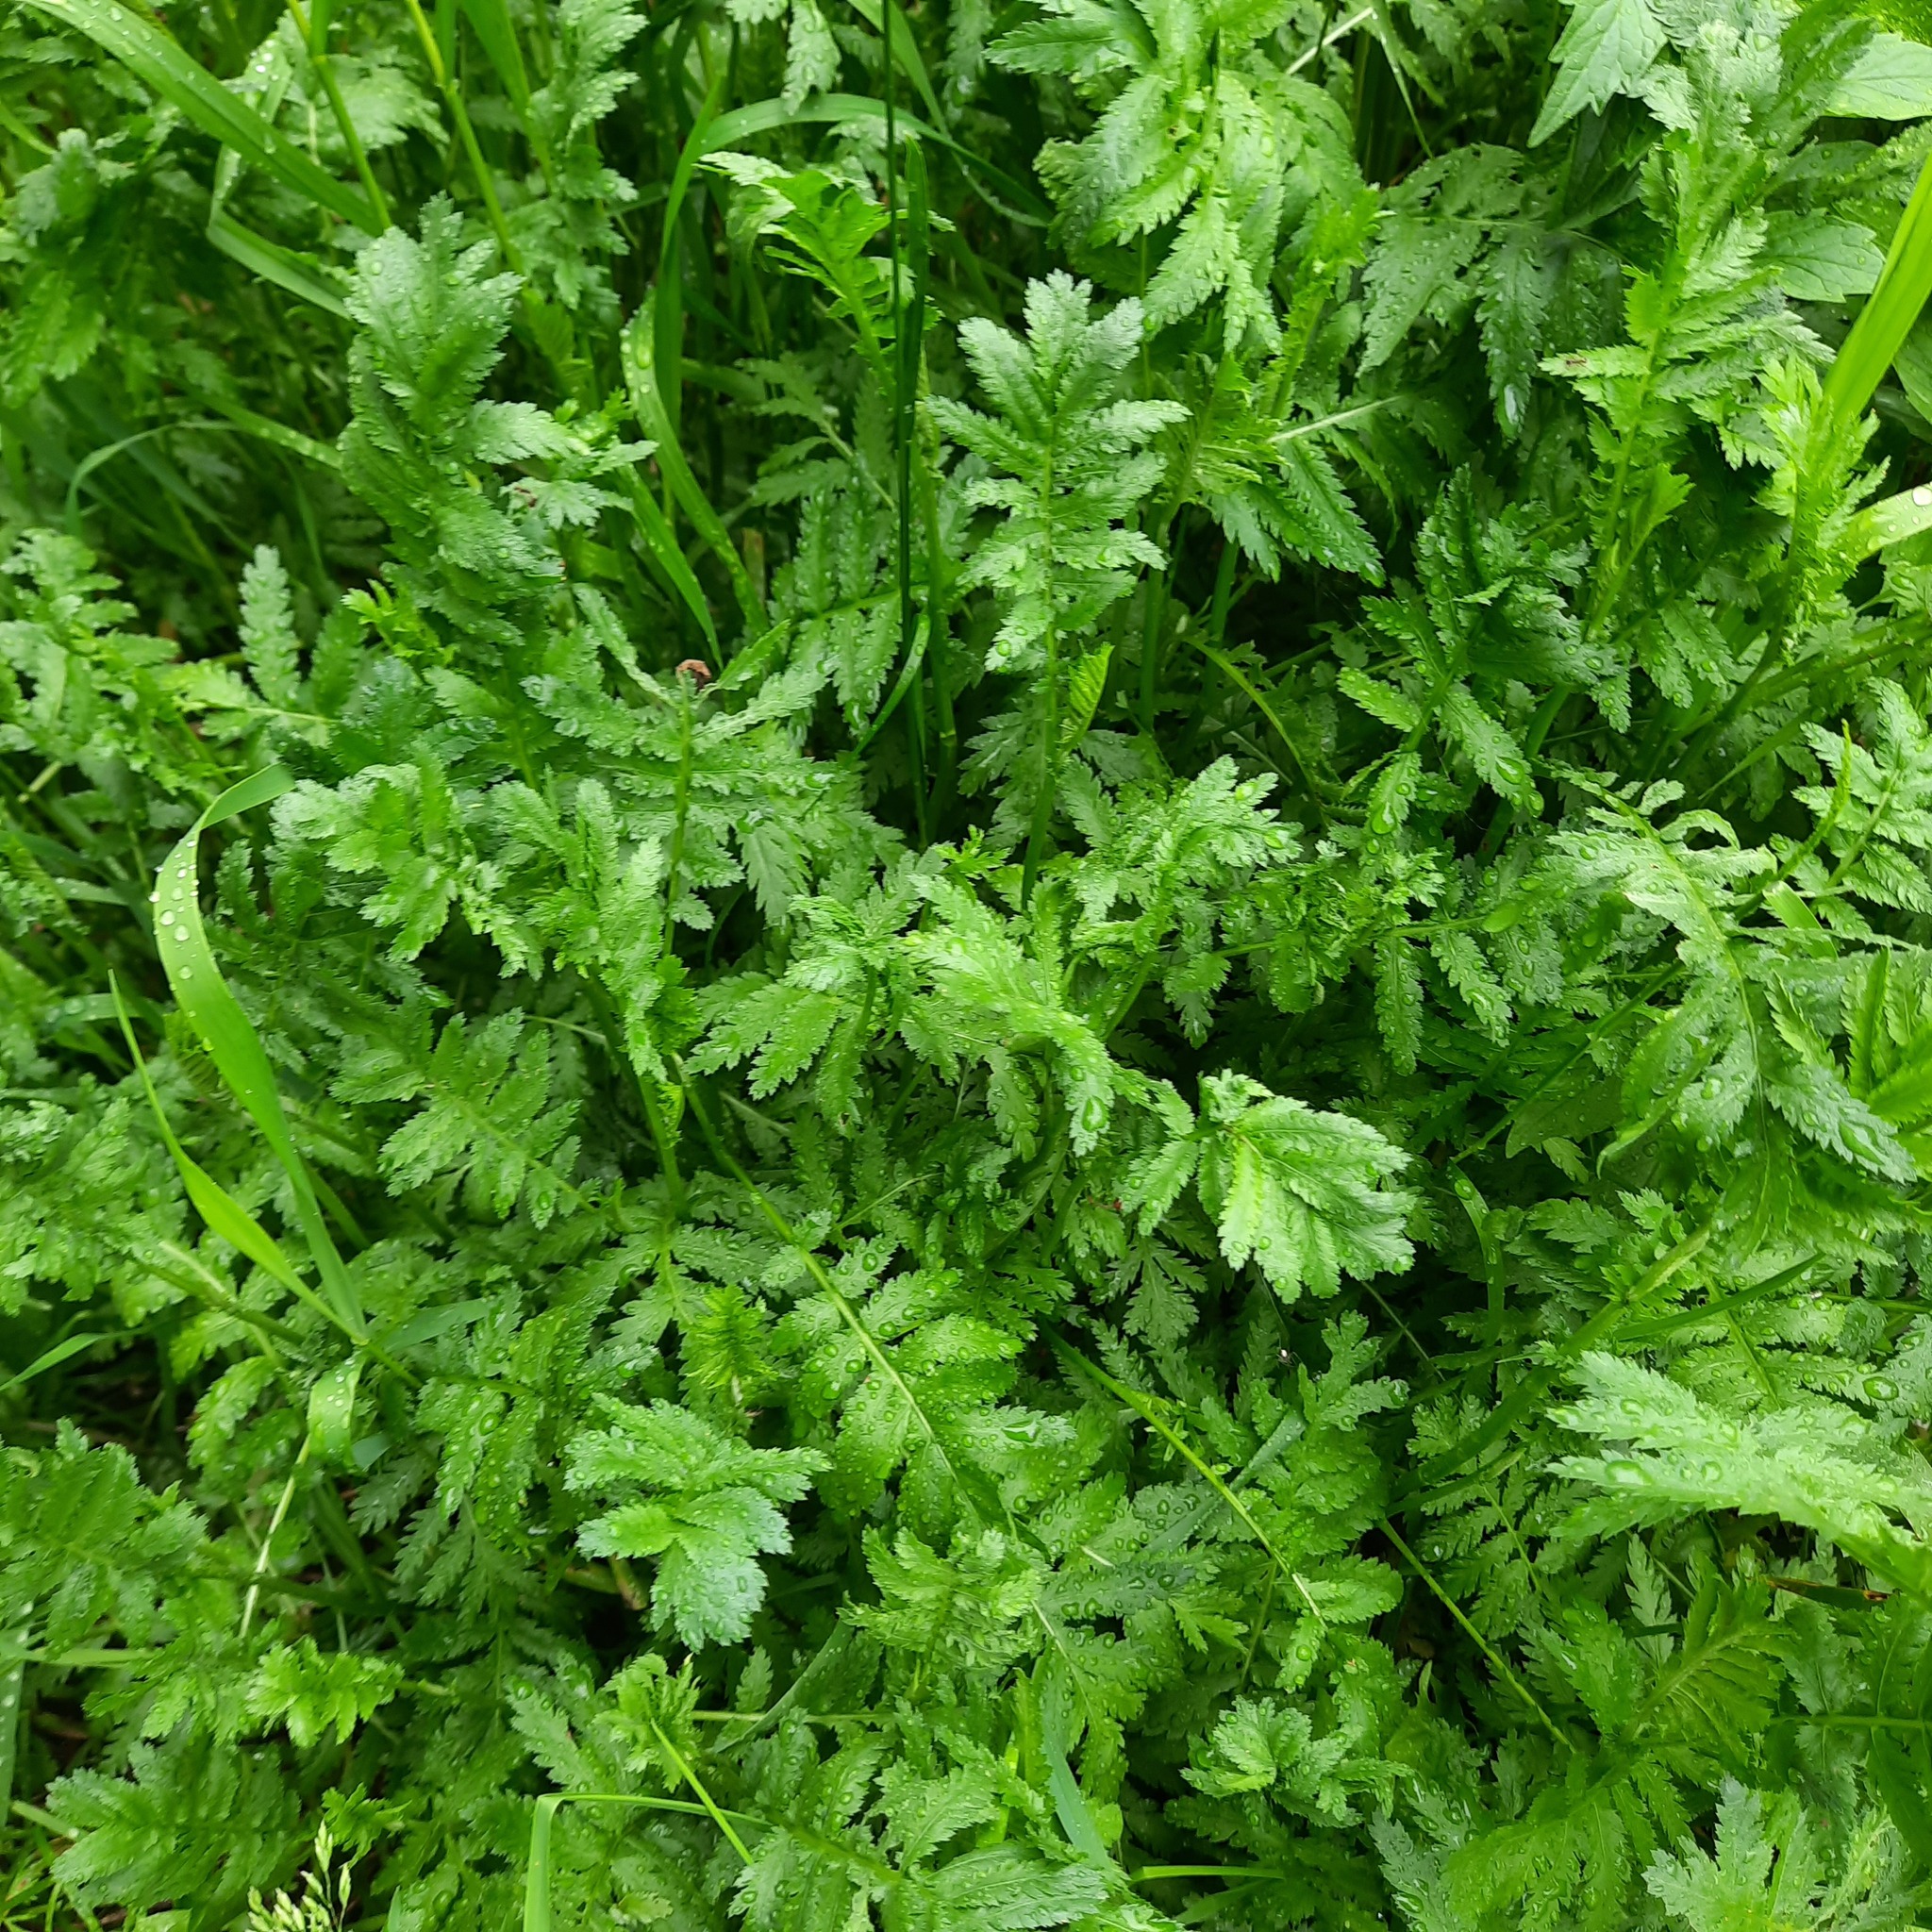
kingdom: Plantae
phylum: Tracheophyta
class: Magnoliopsida
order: Asterales
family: Asteraceae
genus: Tanacetum
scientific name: Tanacetum vulgare
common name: Common tansy
